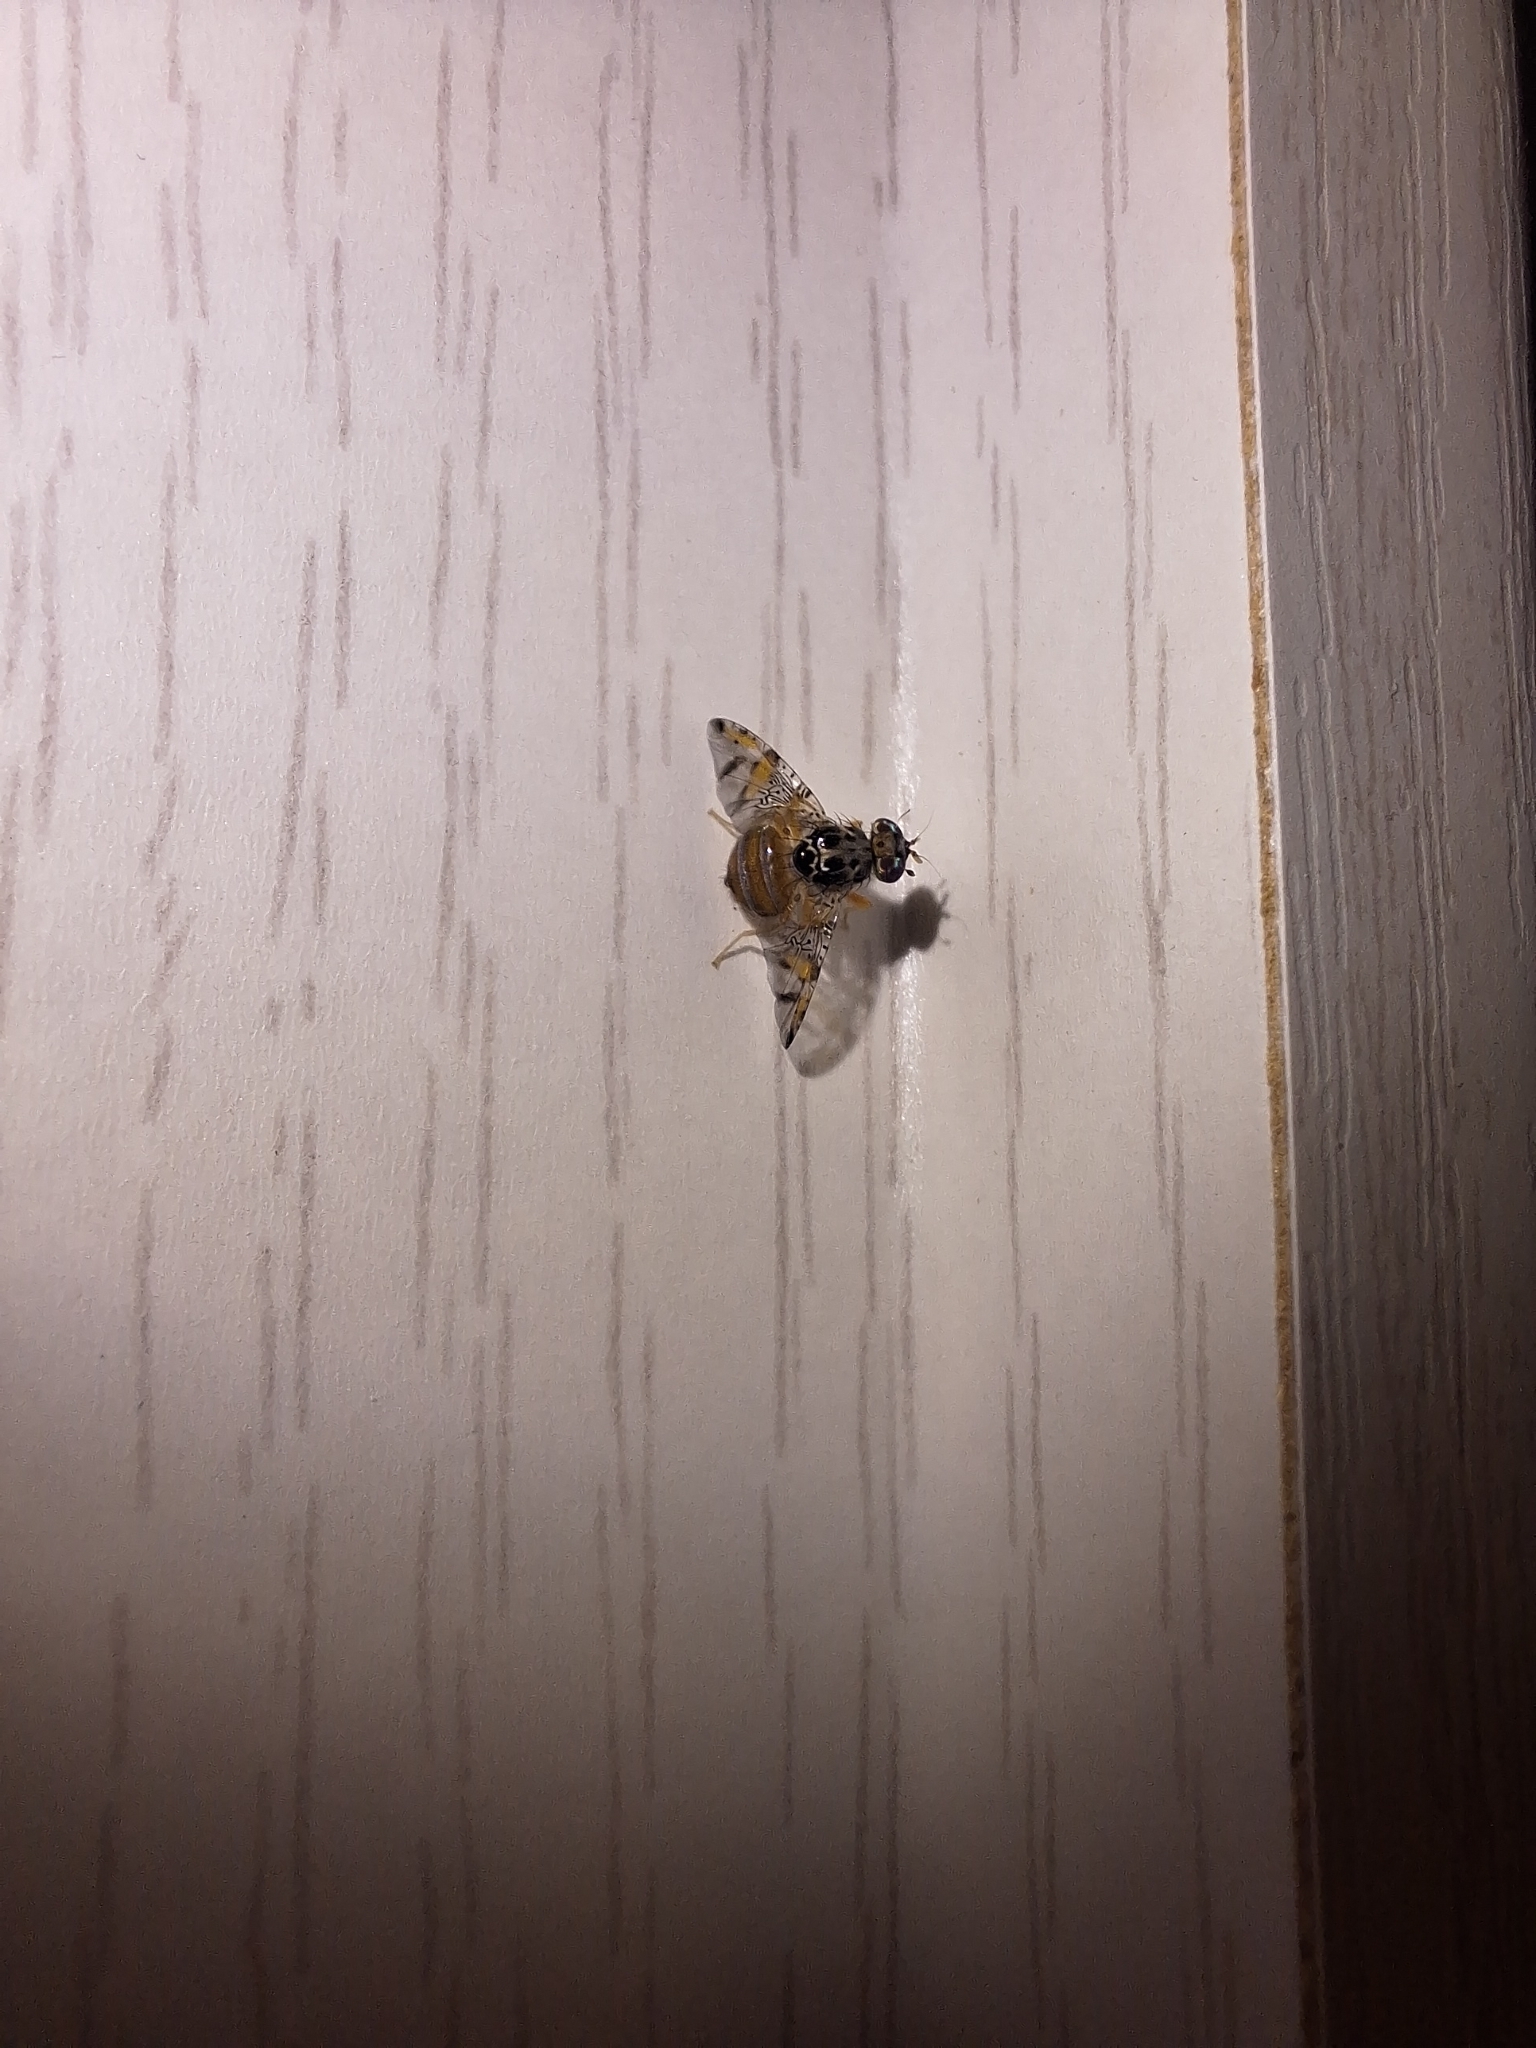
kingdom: Animalia
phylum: Arthropoda
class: Insecta
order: Diptera
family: Tephritidae
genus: Ceratitis
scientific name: Ceratitis capitata
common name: Mediterranean fruit fly
